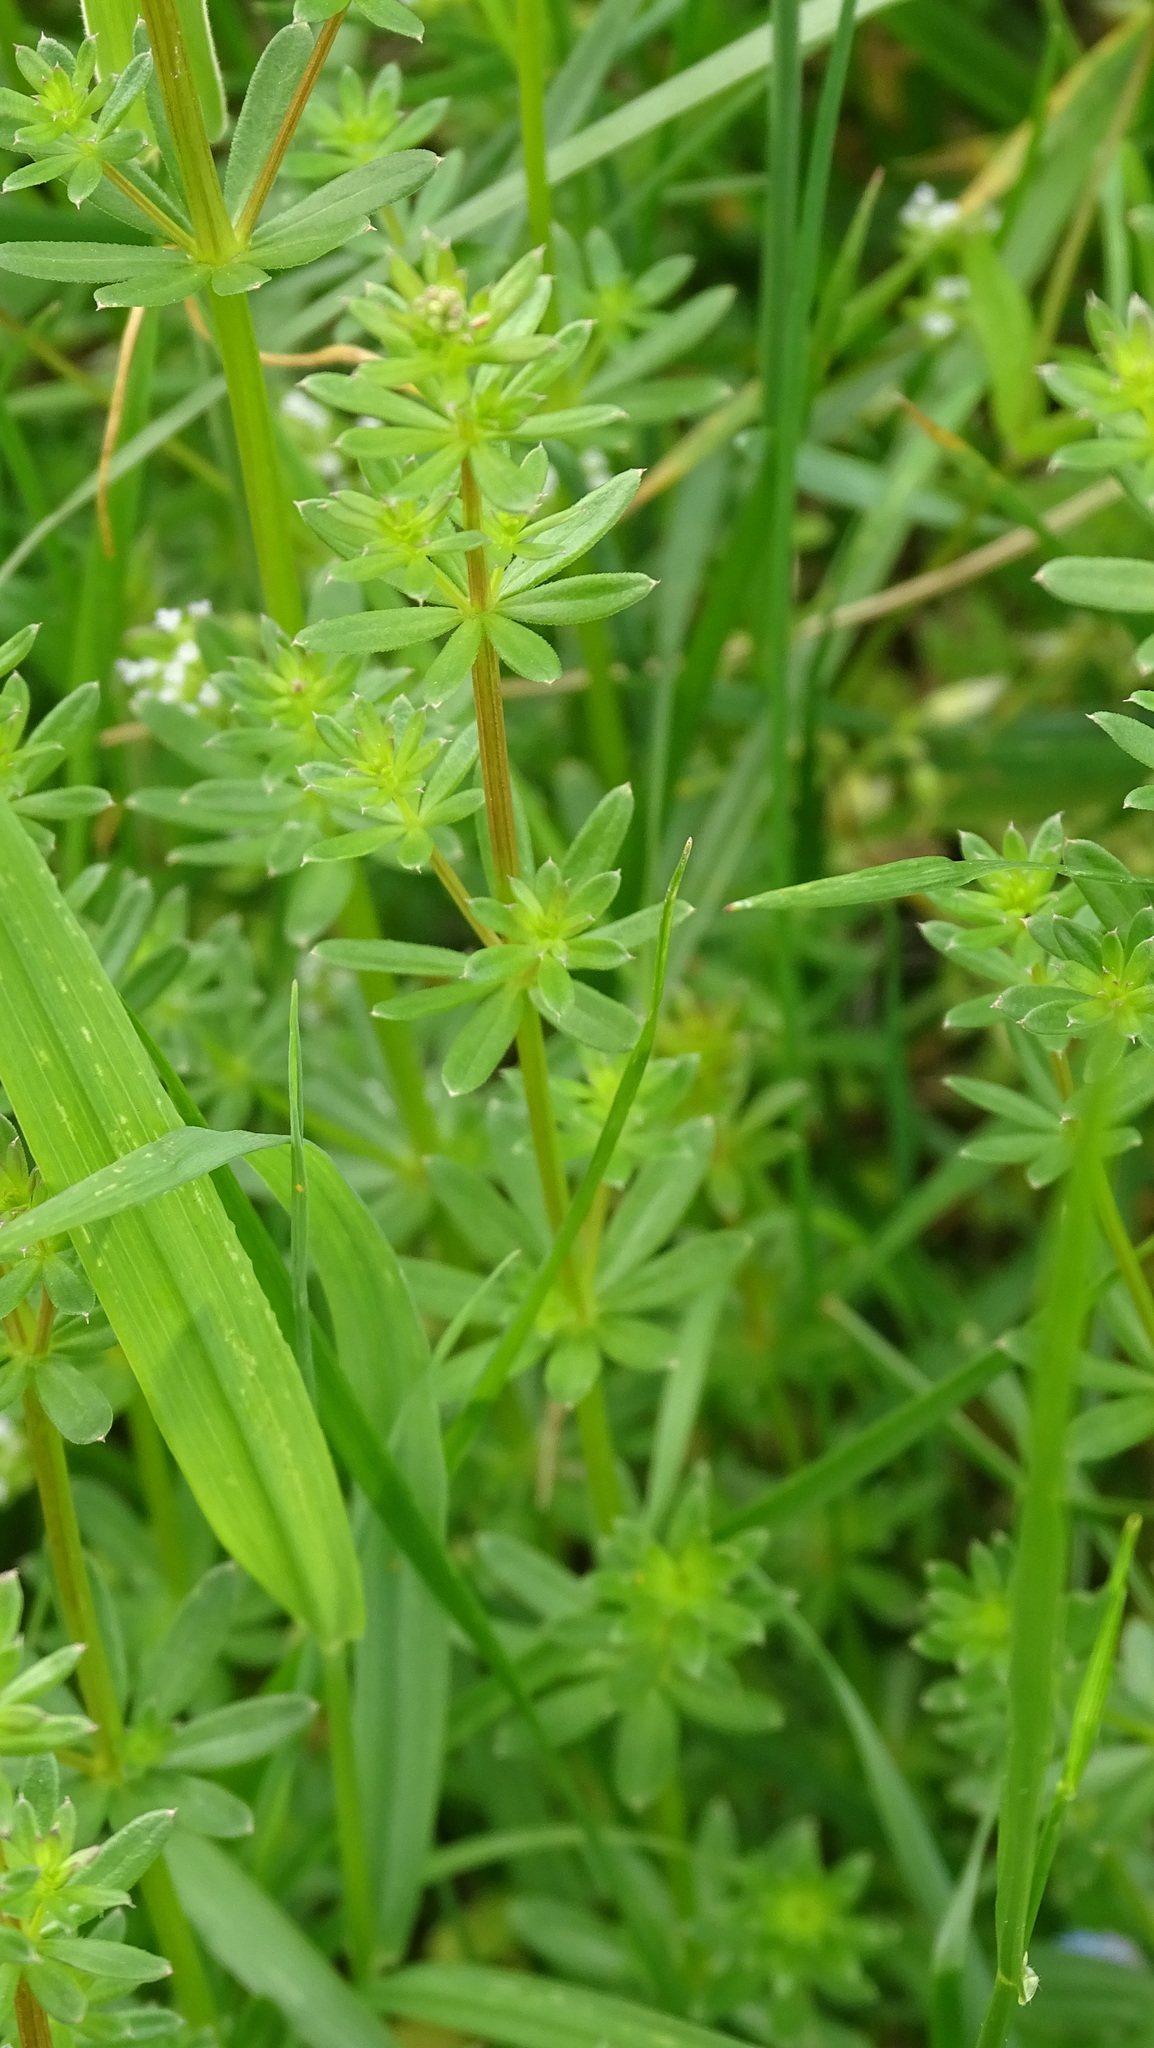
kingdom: Plantae
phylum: Tracheophyta
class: Magnoliopsida
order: Gentianales
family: Rubiaceae
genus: Galium
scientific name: Galium mollugo
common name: Hedge bedstraw
